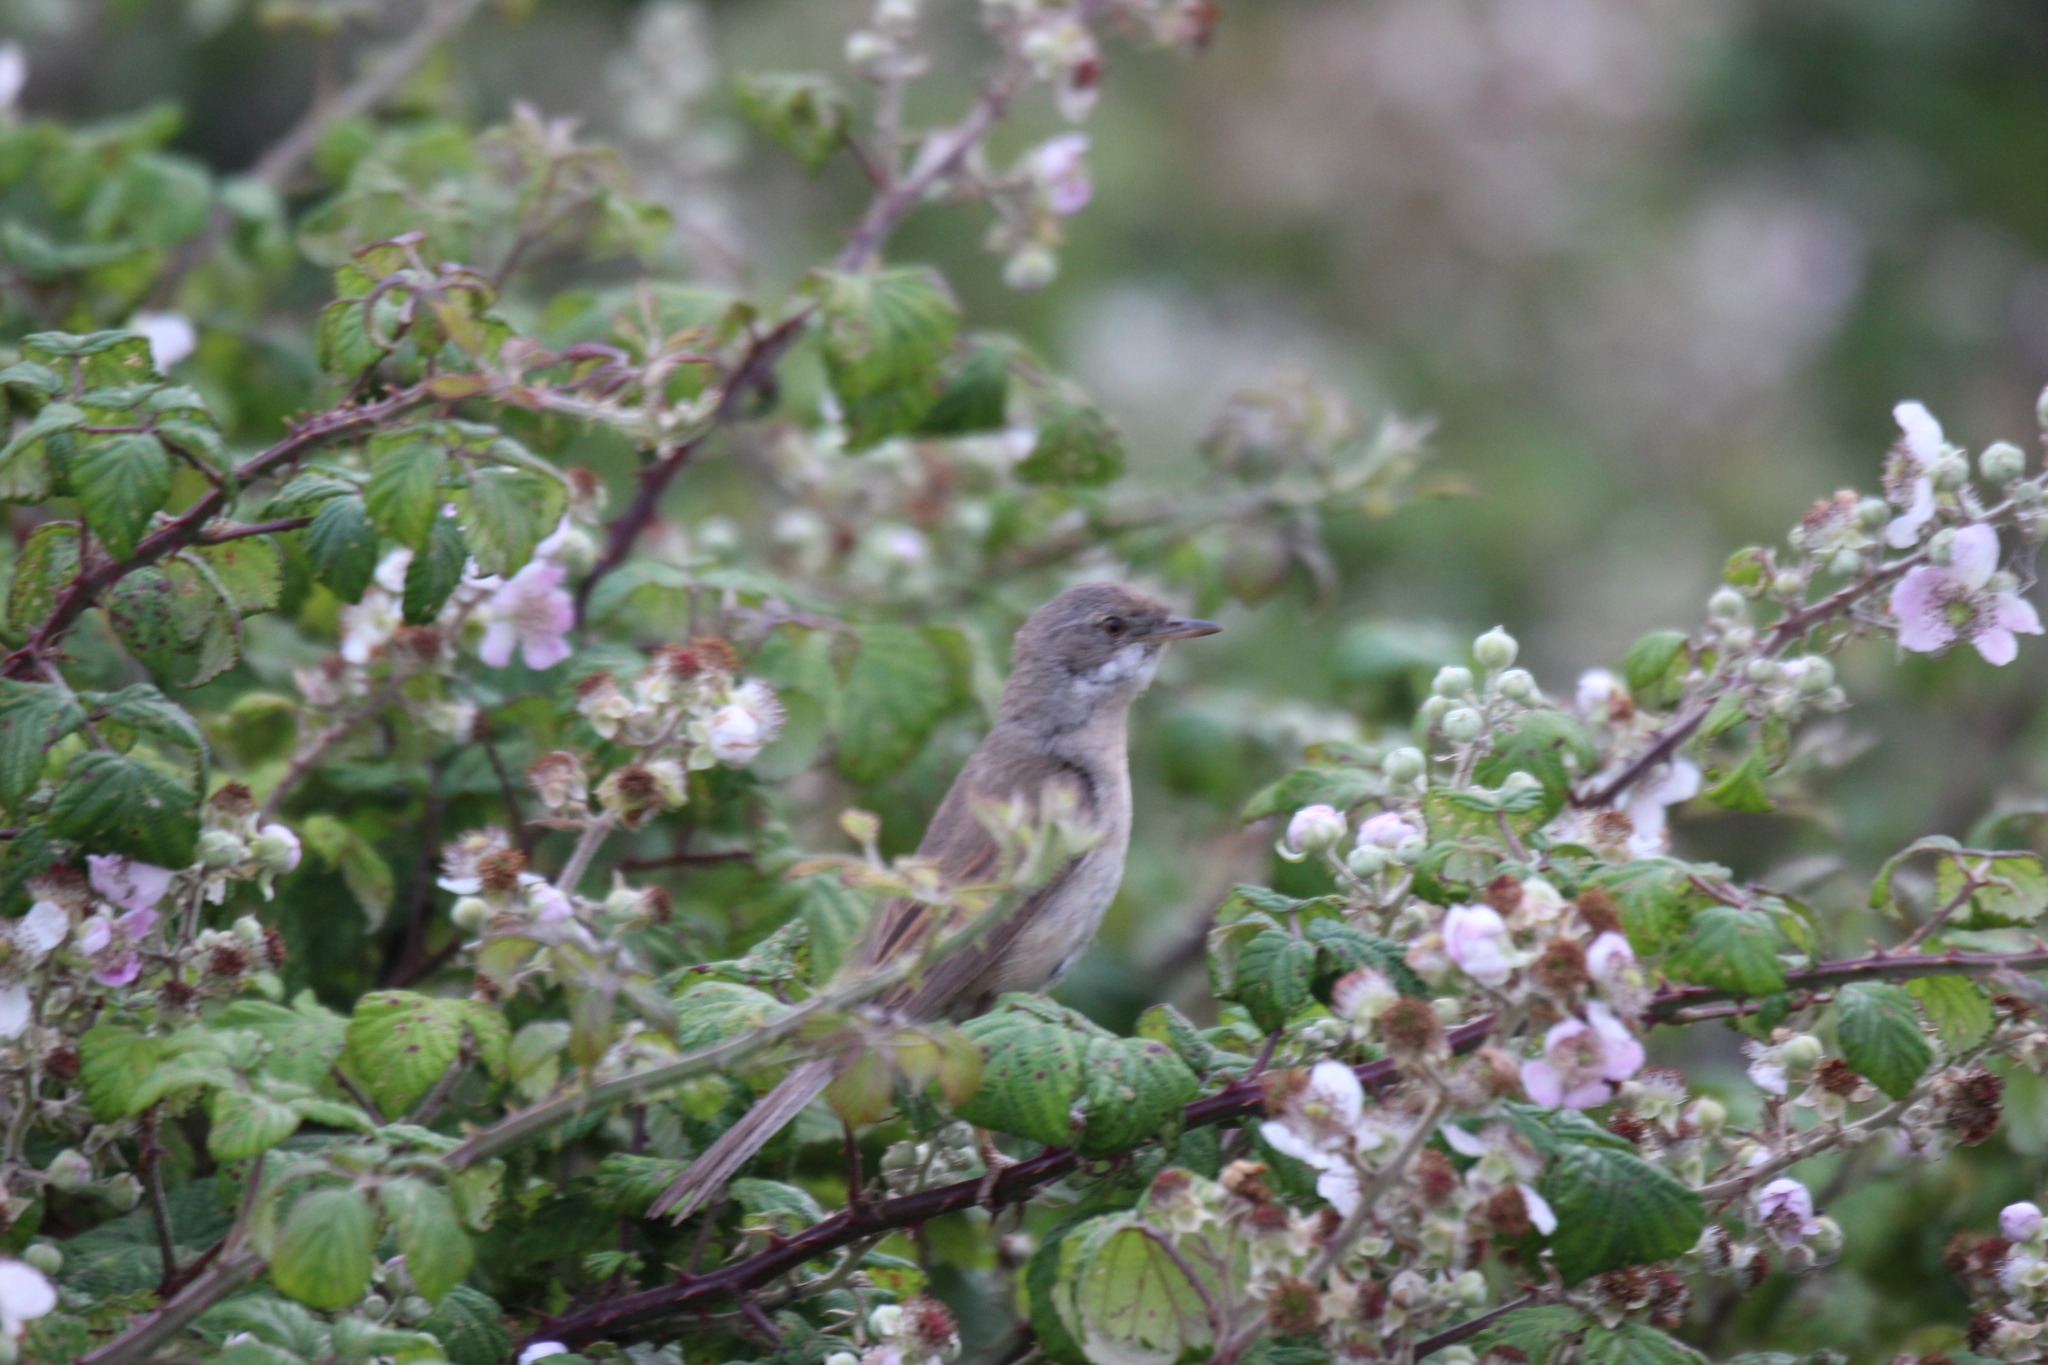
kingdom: Animalia
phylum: Chordata
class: Aves
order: Passeriformes
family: Sylviidae
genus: Sylvia
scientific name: Sylvia communis
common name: Common whitethroat
